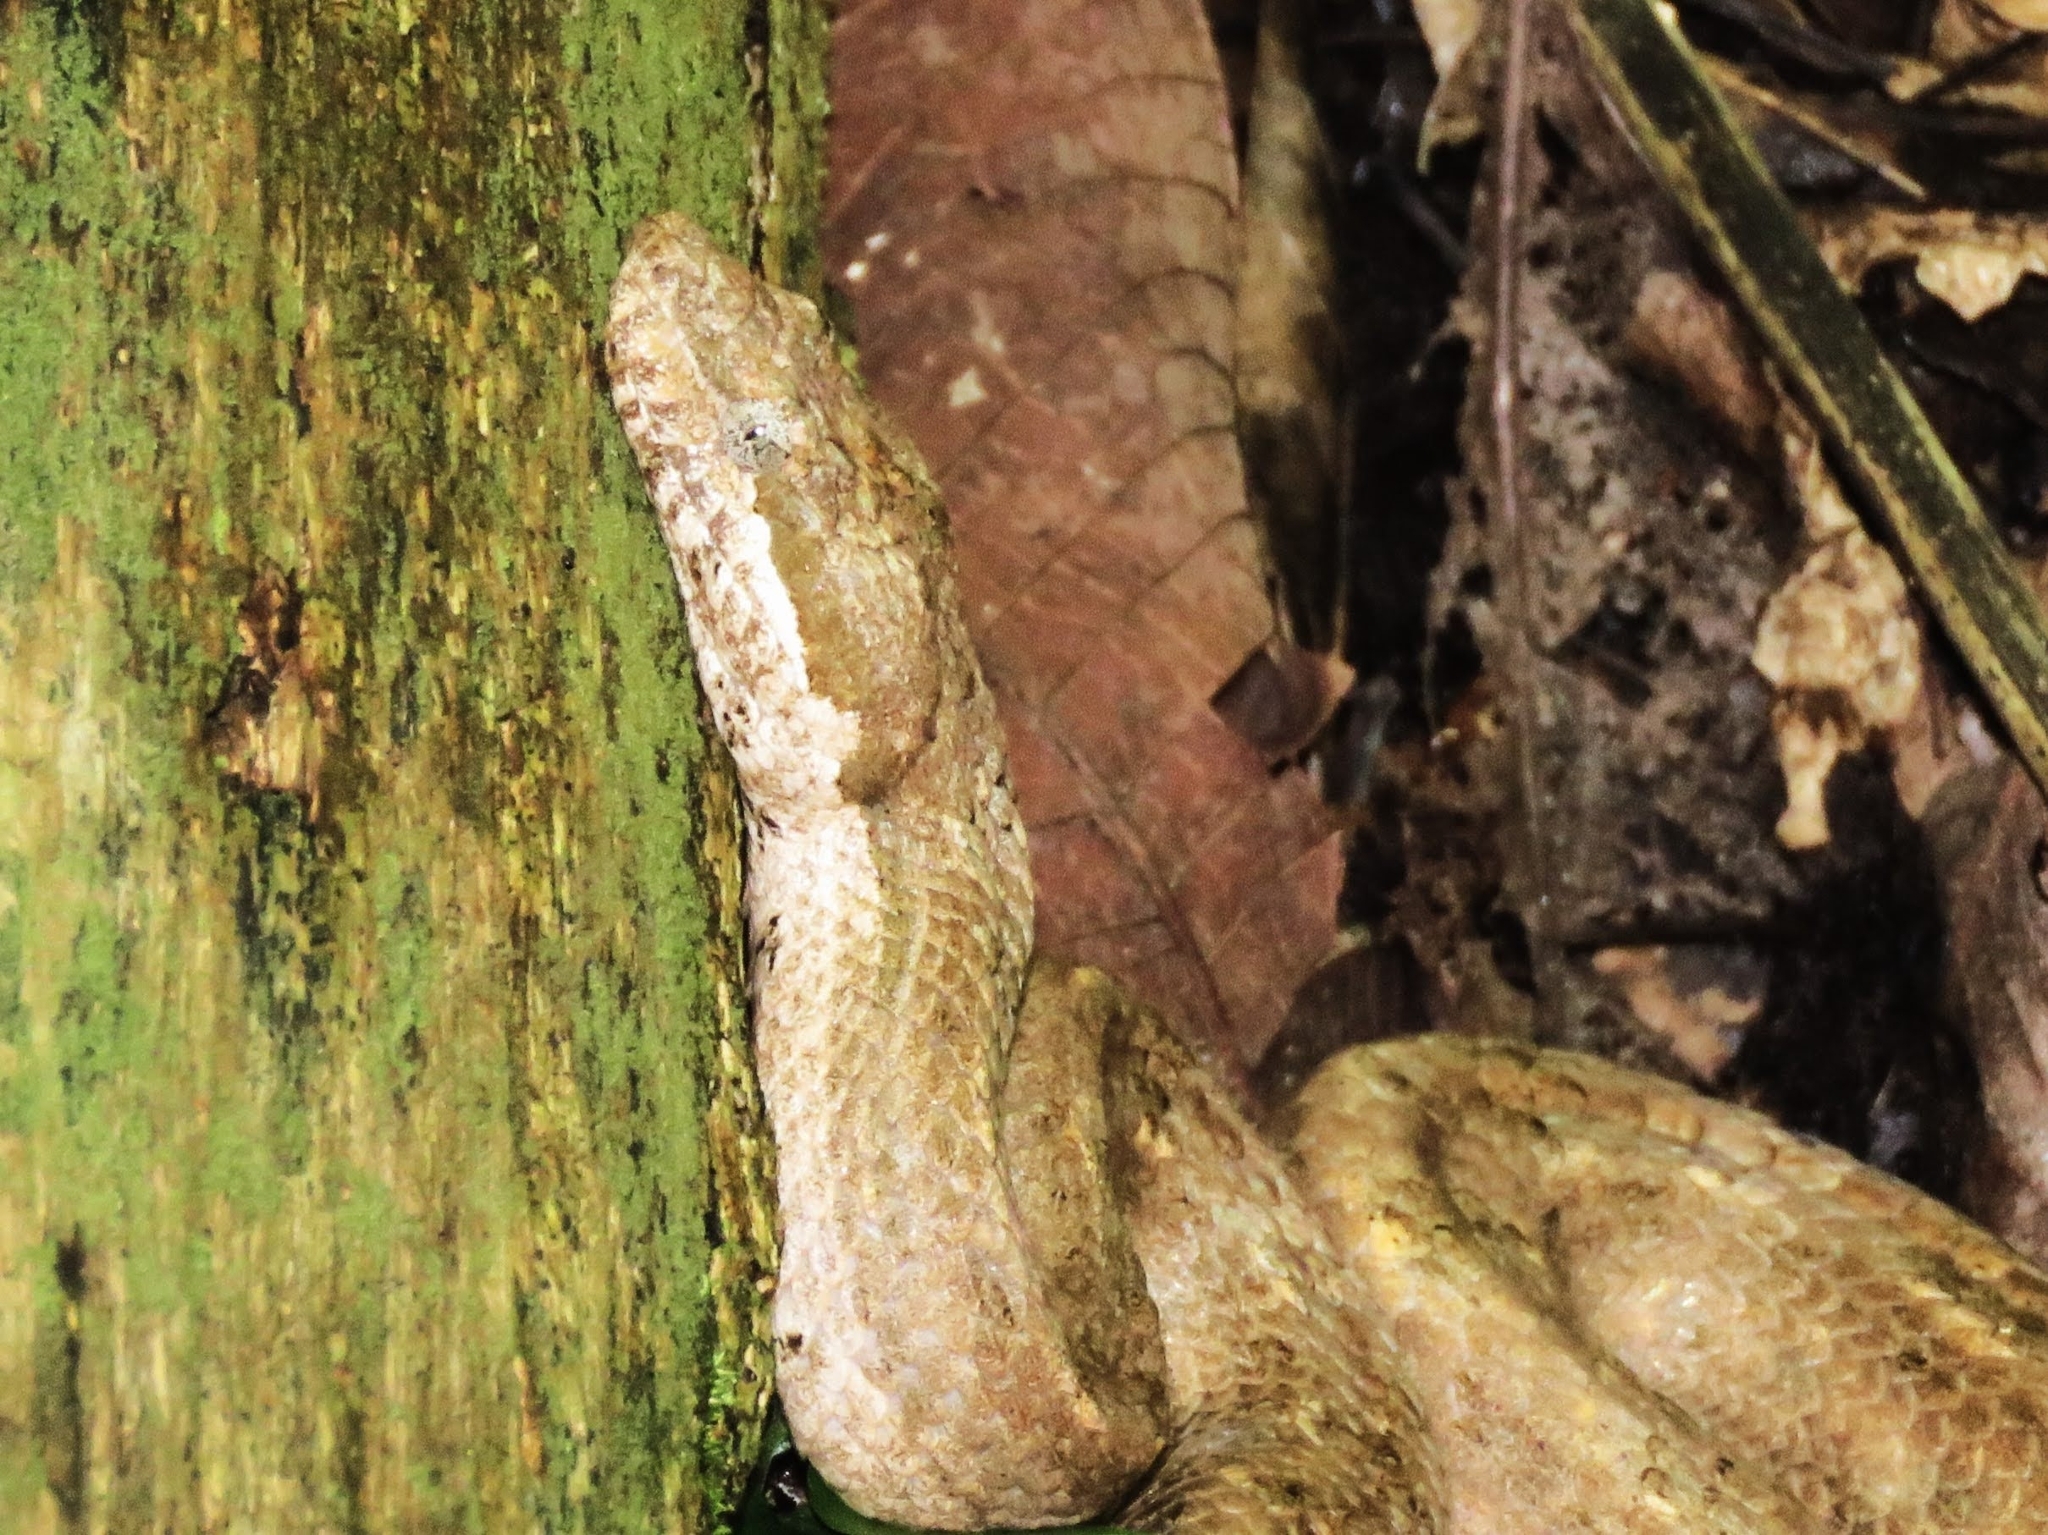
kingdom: Animalia
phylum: Chordata
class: Squamata
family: Tropidophiidae
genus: Tropidophis
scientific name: Tropidophis melanurus
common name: Giant trope
